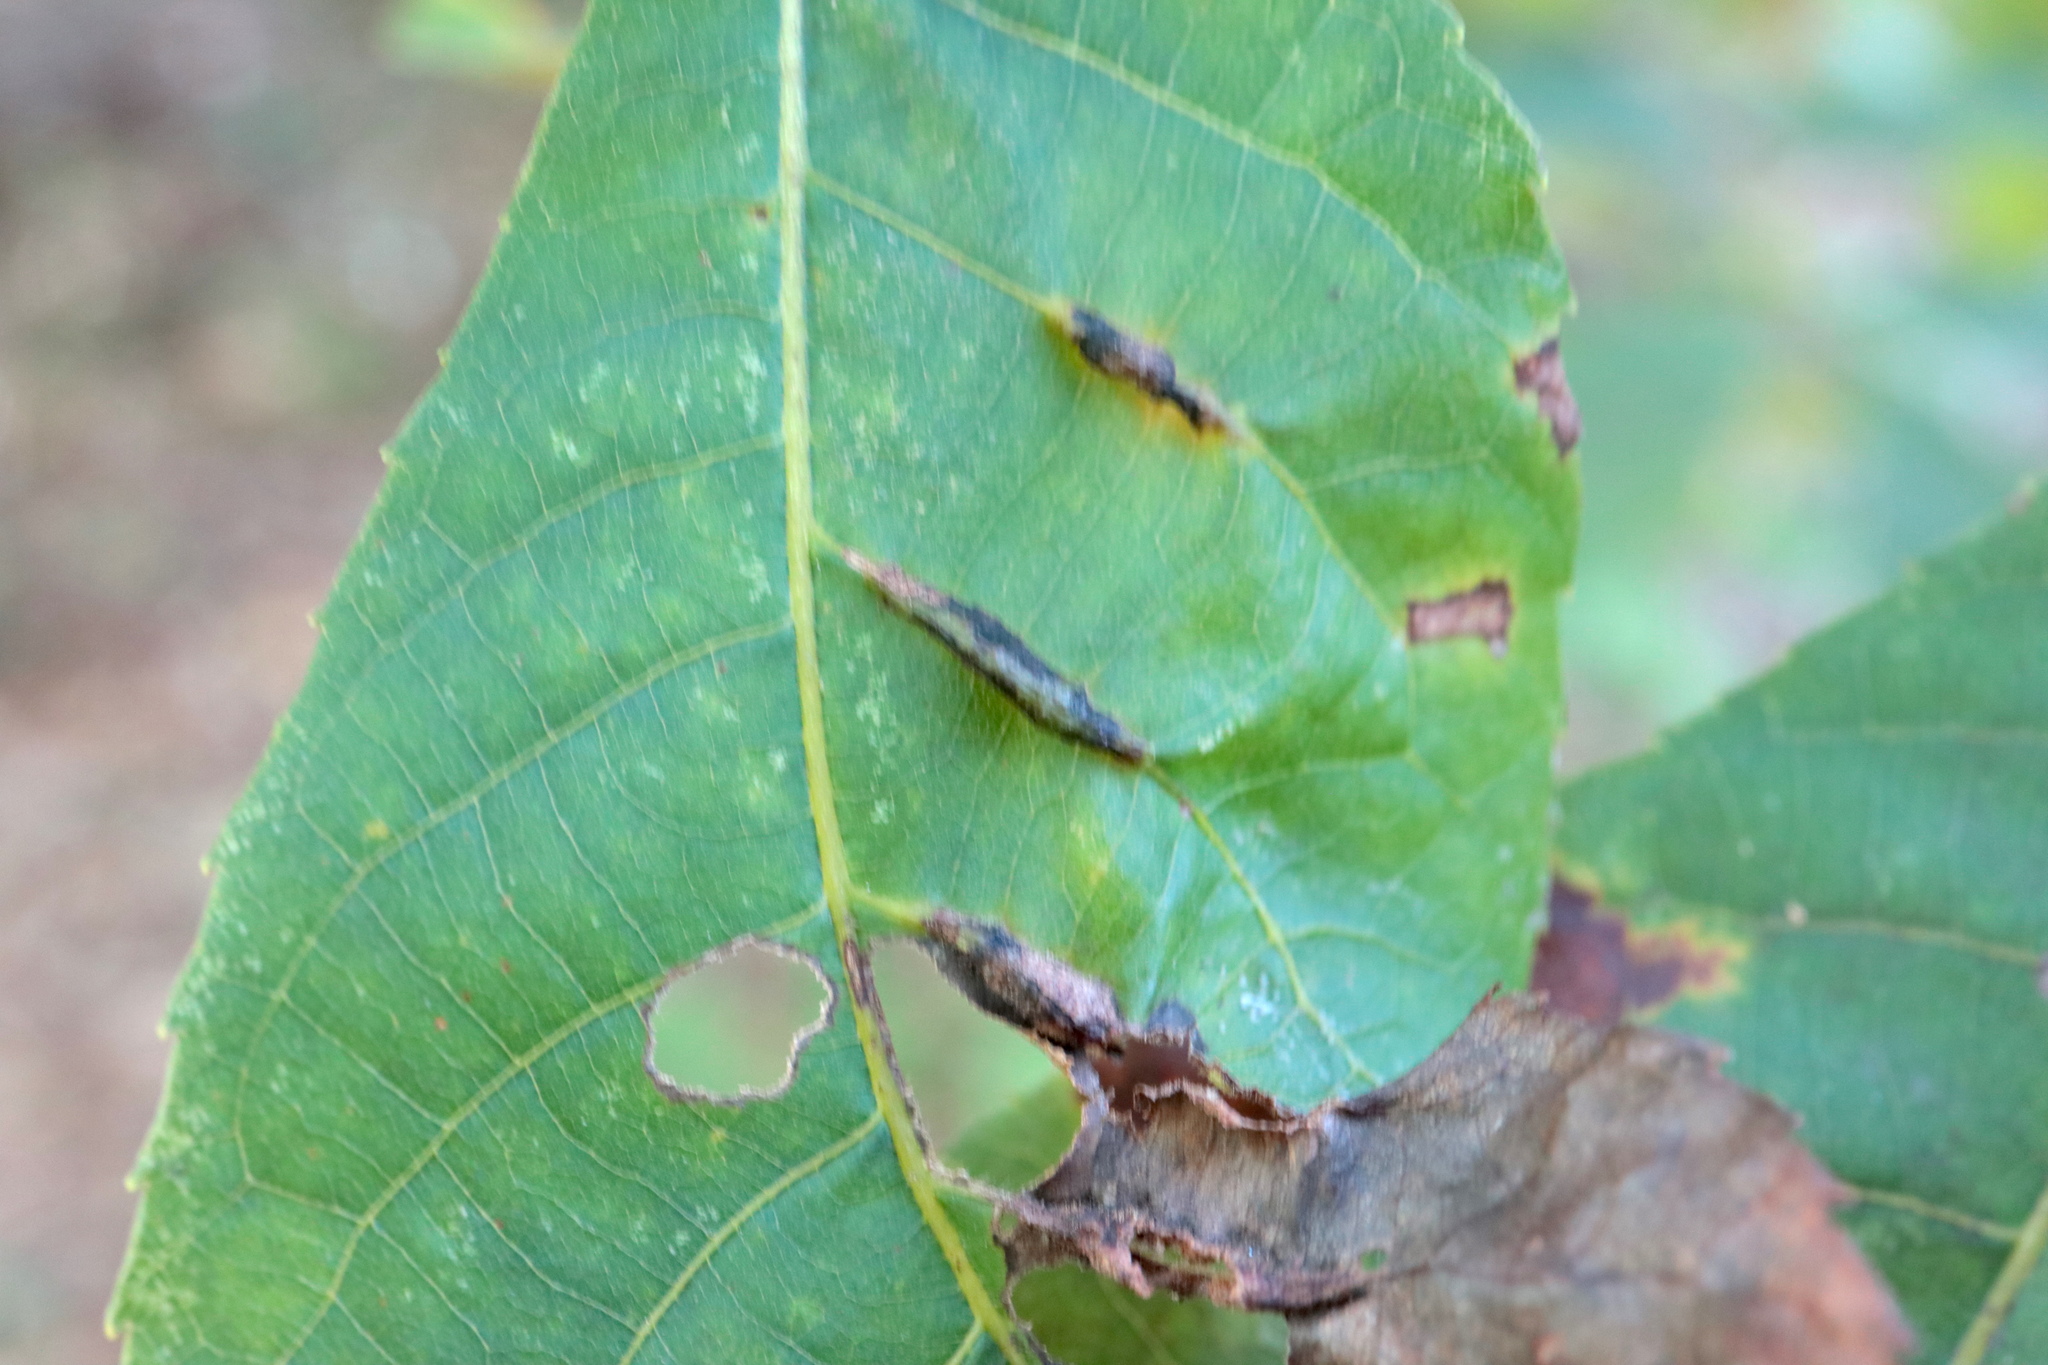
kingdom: Animalia
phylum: Arthropoda
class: Insecta
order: Hemiptera
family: Phylloxeridae
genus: Phylloxera
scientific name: Phylloxera caryaevenae
